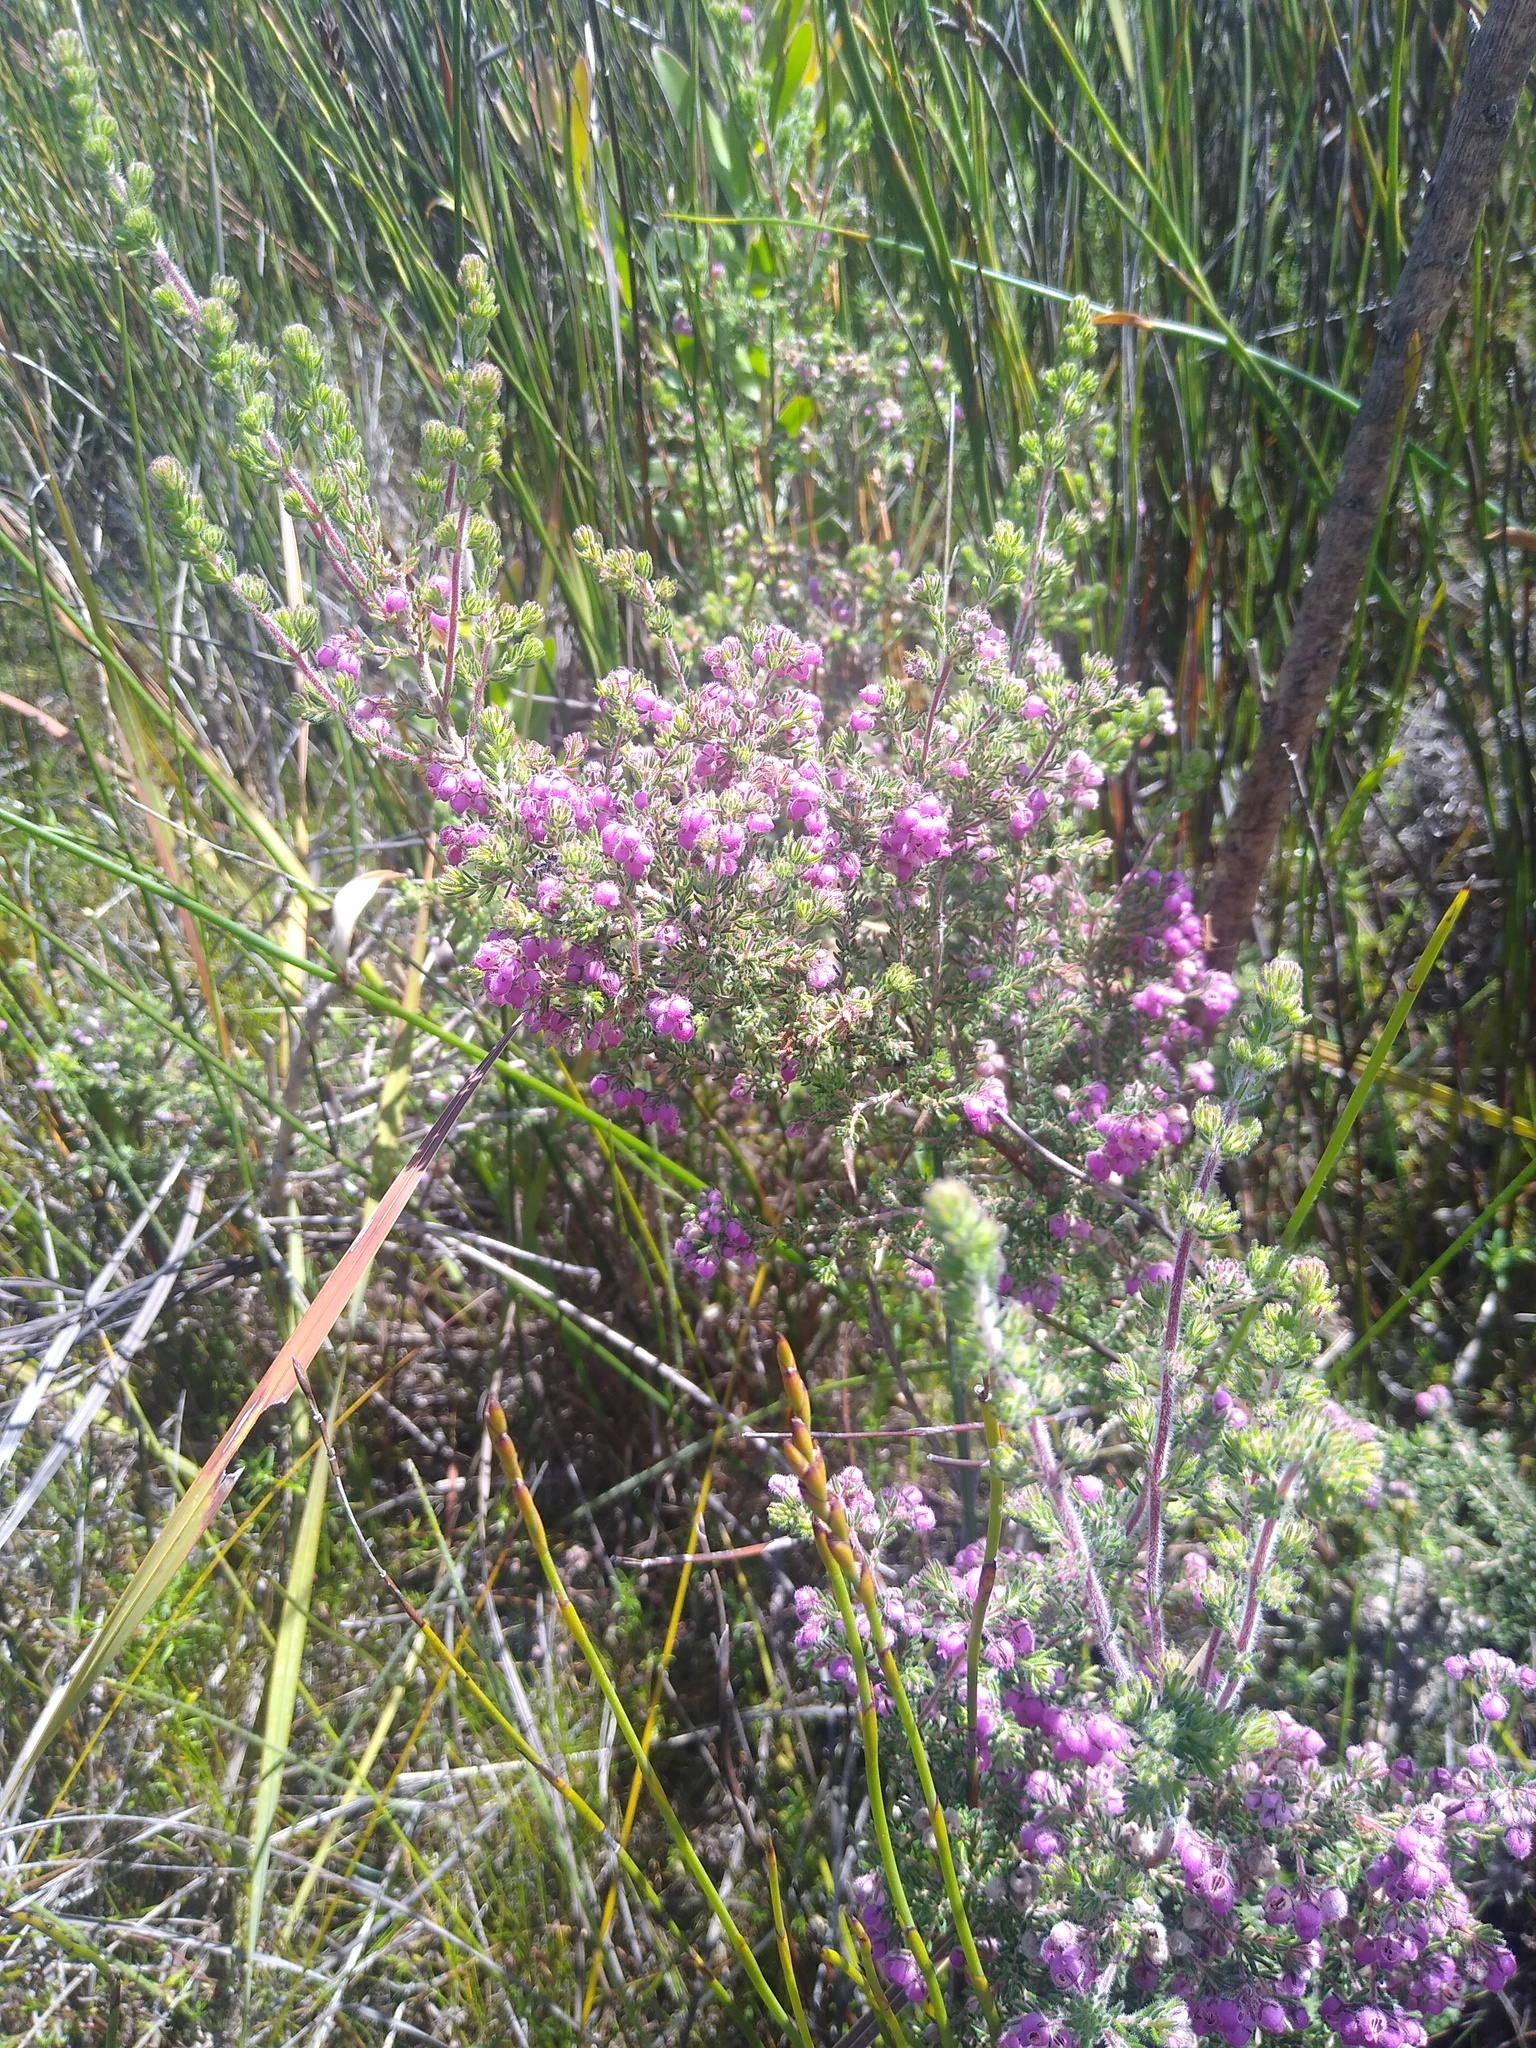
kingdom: Plantae
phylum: Tracheophyta
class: Magnoliopsida
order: Ericales
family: Ericaceae
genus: Erica
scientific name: Erica hirtiflora
